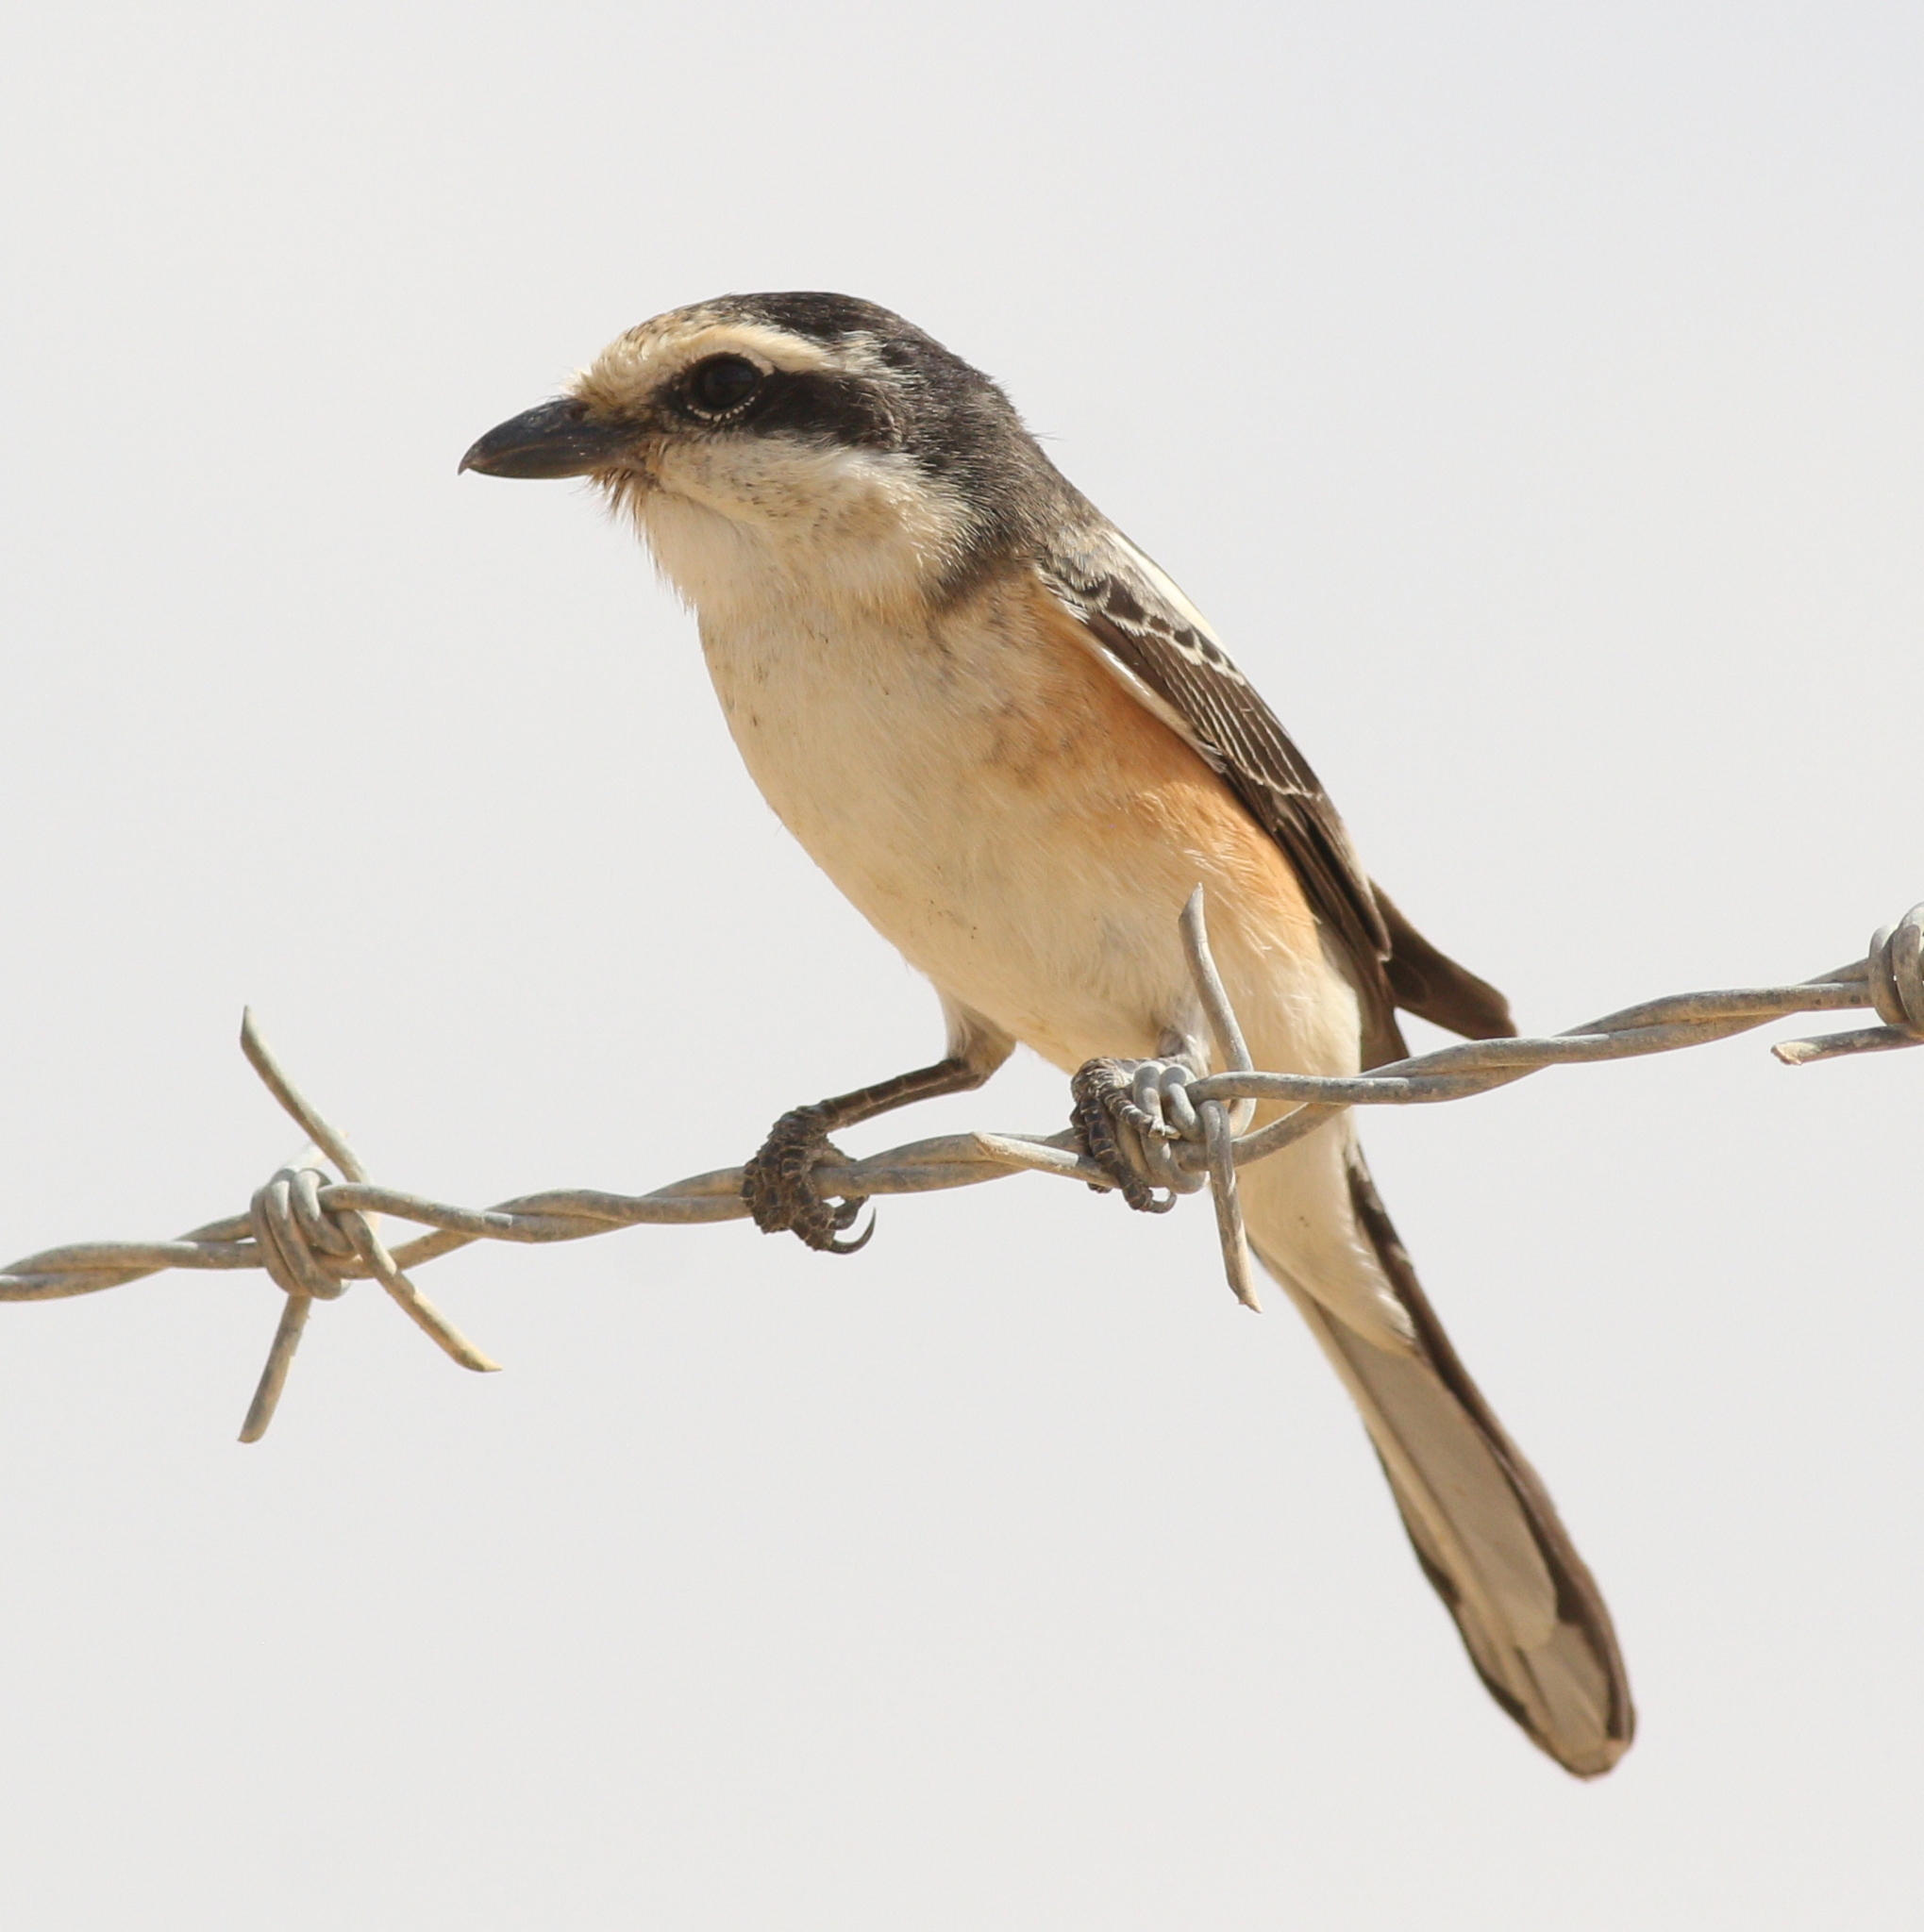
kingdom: Animalia
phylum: Chordata
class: Aves
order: Passeriformes
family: Laniidae
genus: Lanius
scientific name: Lanius nubicus
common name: Masked shrike
